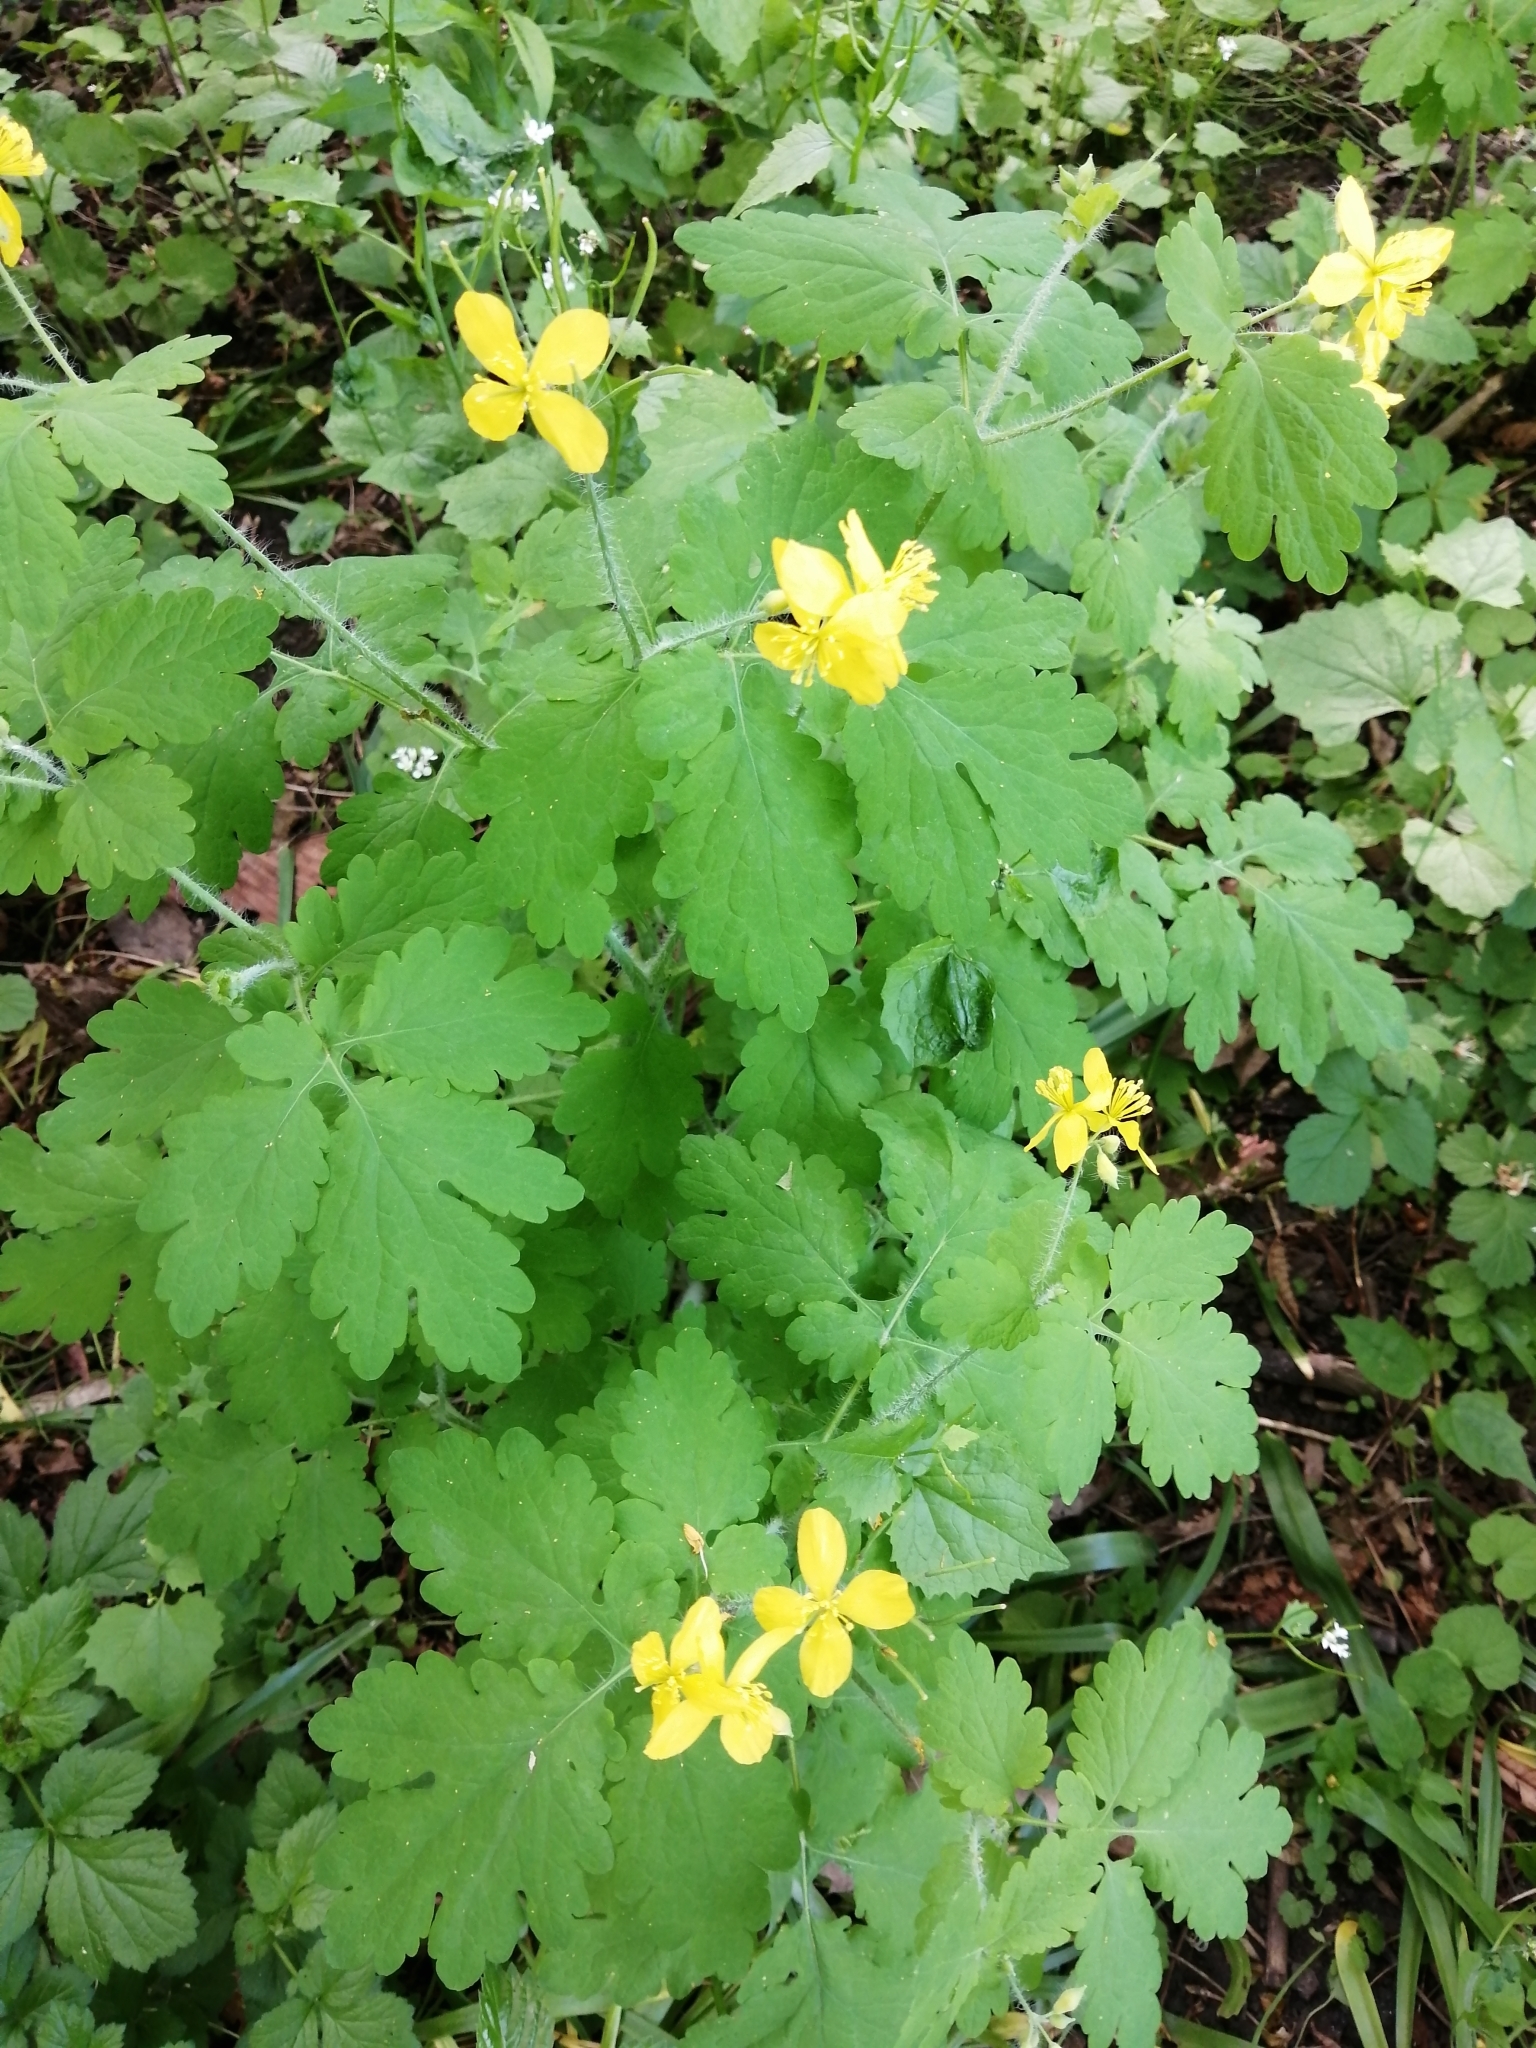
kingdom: Plantae
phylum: Tracheophyta
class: Magnoliopsida
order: Ranunculales
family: Papaveraceae
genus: Chelidonium
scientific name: Chelidonium majus
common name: Greater celandine
